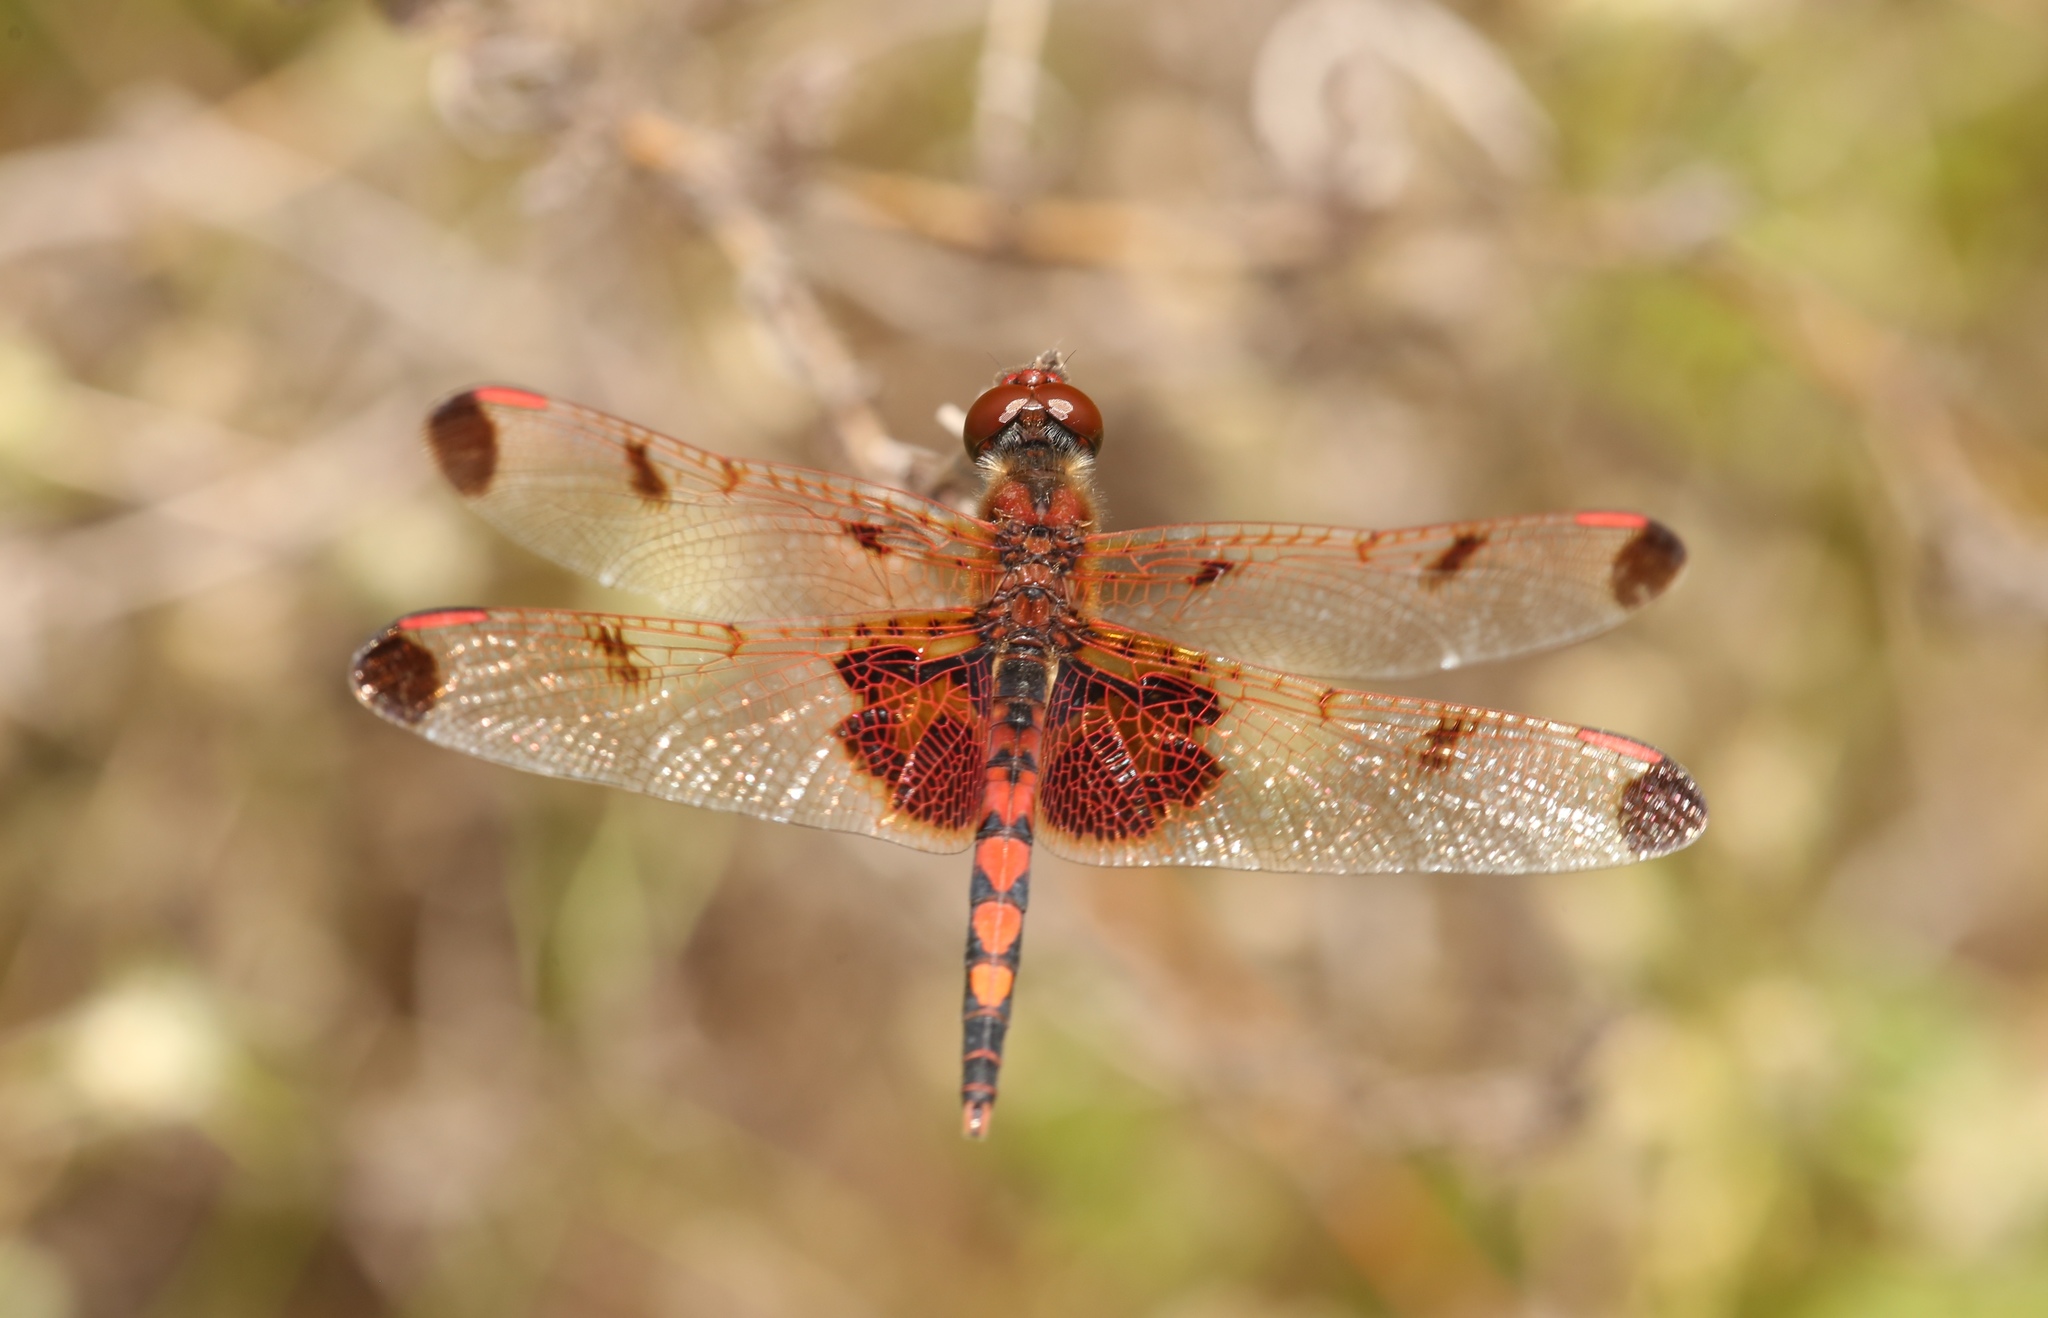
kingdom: Animalia
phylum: Arthropoda
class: Insecta
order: Odonata
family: Libellulidae
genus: Celithemis
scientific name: Celithemis elisa
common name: Calico pennant
